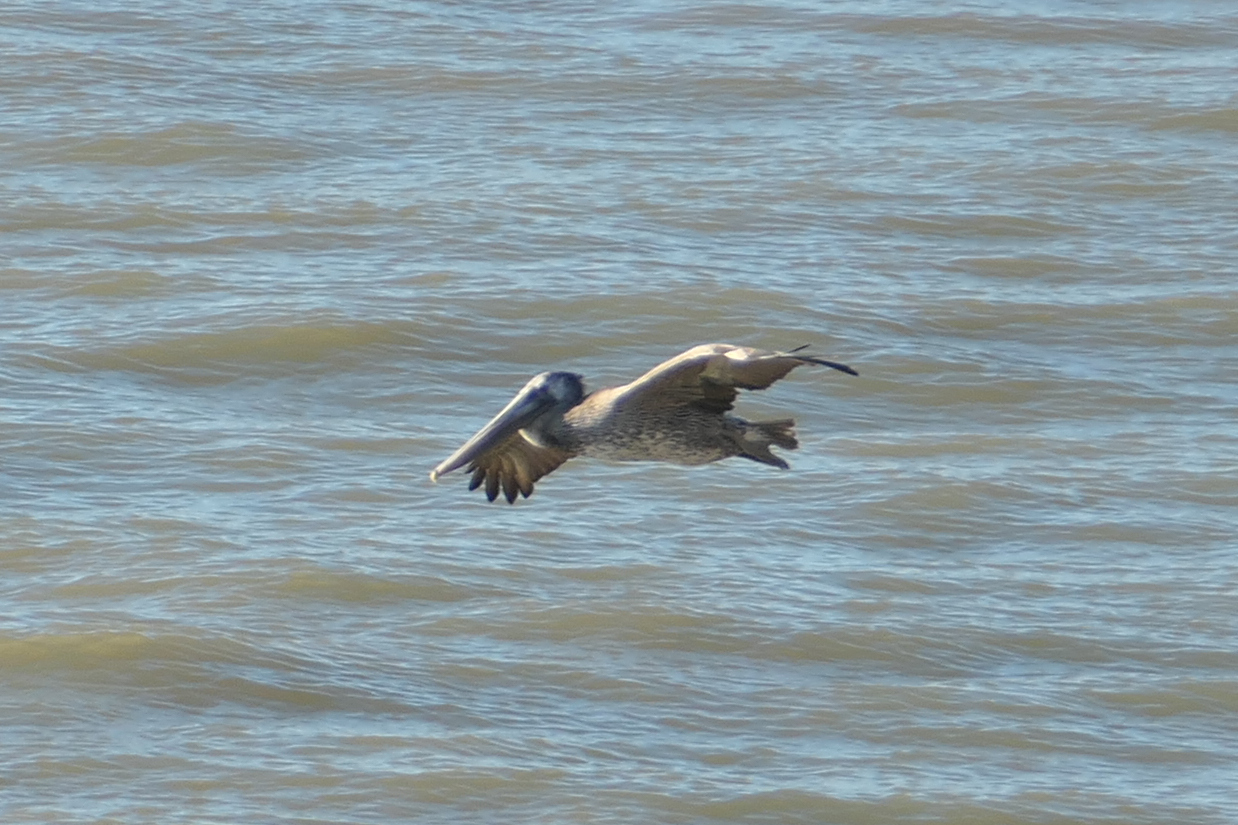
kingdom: Animalia
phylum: Chordata
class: Aves
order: Pelecaniformes
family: Pelecanidae
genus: Pelecanus
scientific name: Pelecanus occidentalis
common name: Brown pelican
